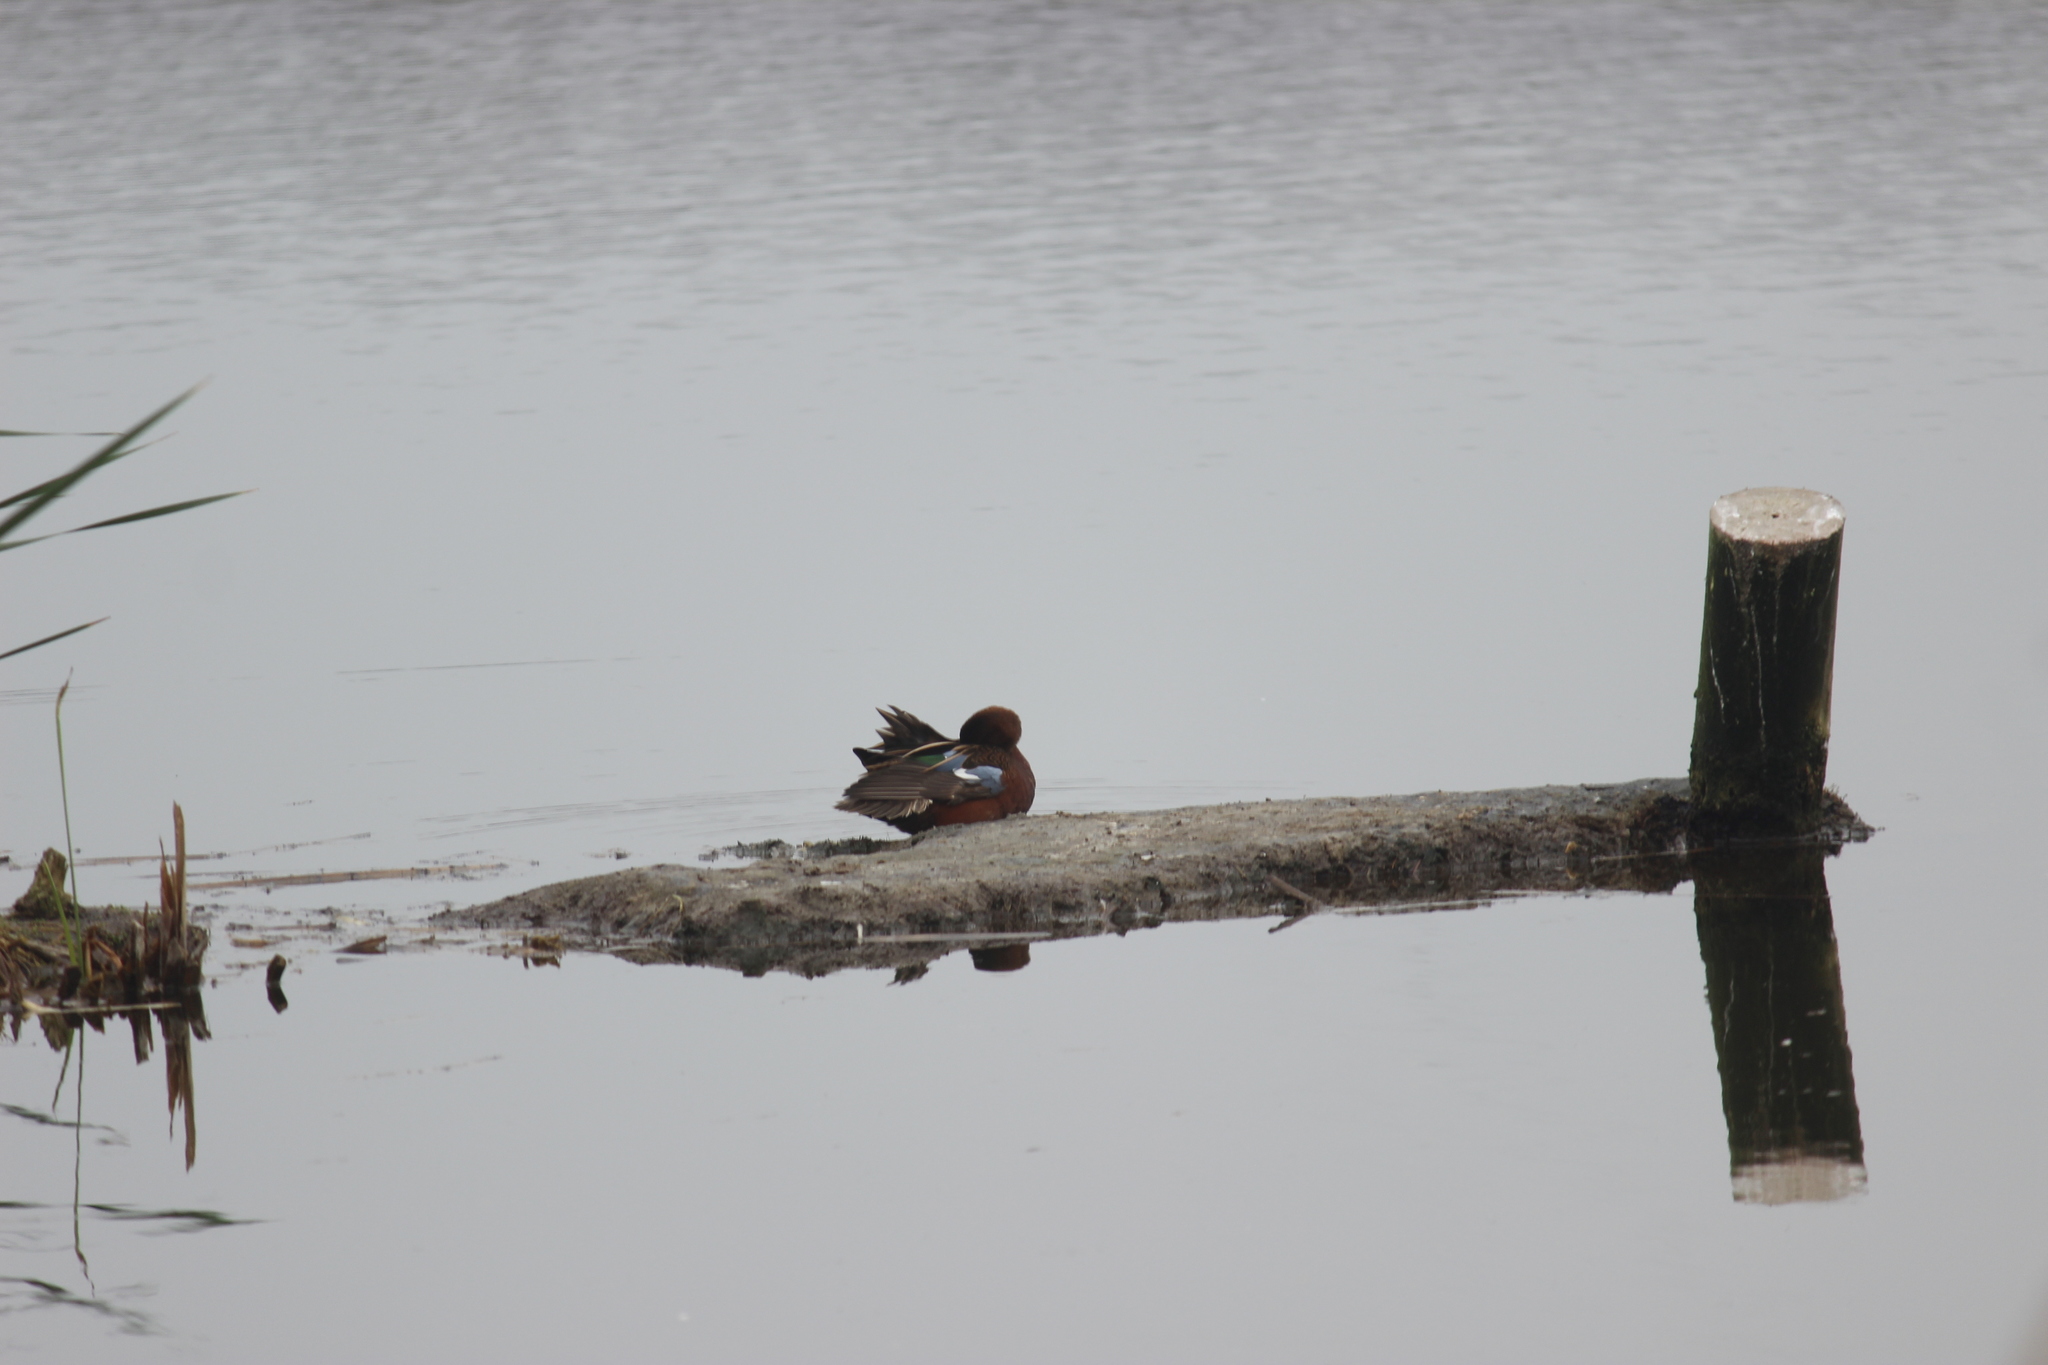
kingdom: Animalia
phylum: Chordata
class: Aves
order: Anseriformes
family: Anatidae
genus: Spatula
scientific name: Spatula cyanoptera
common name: Cinnamon teal
